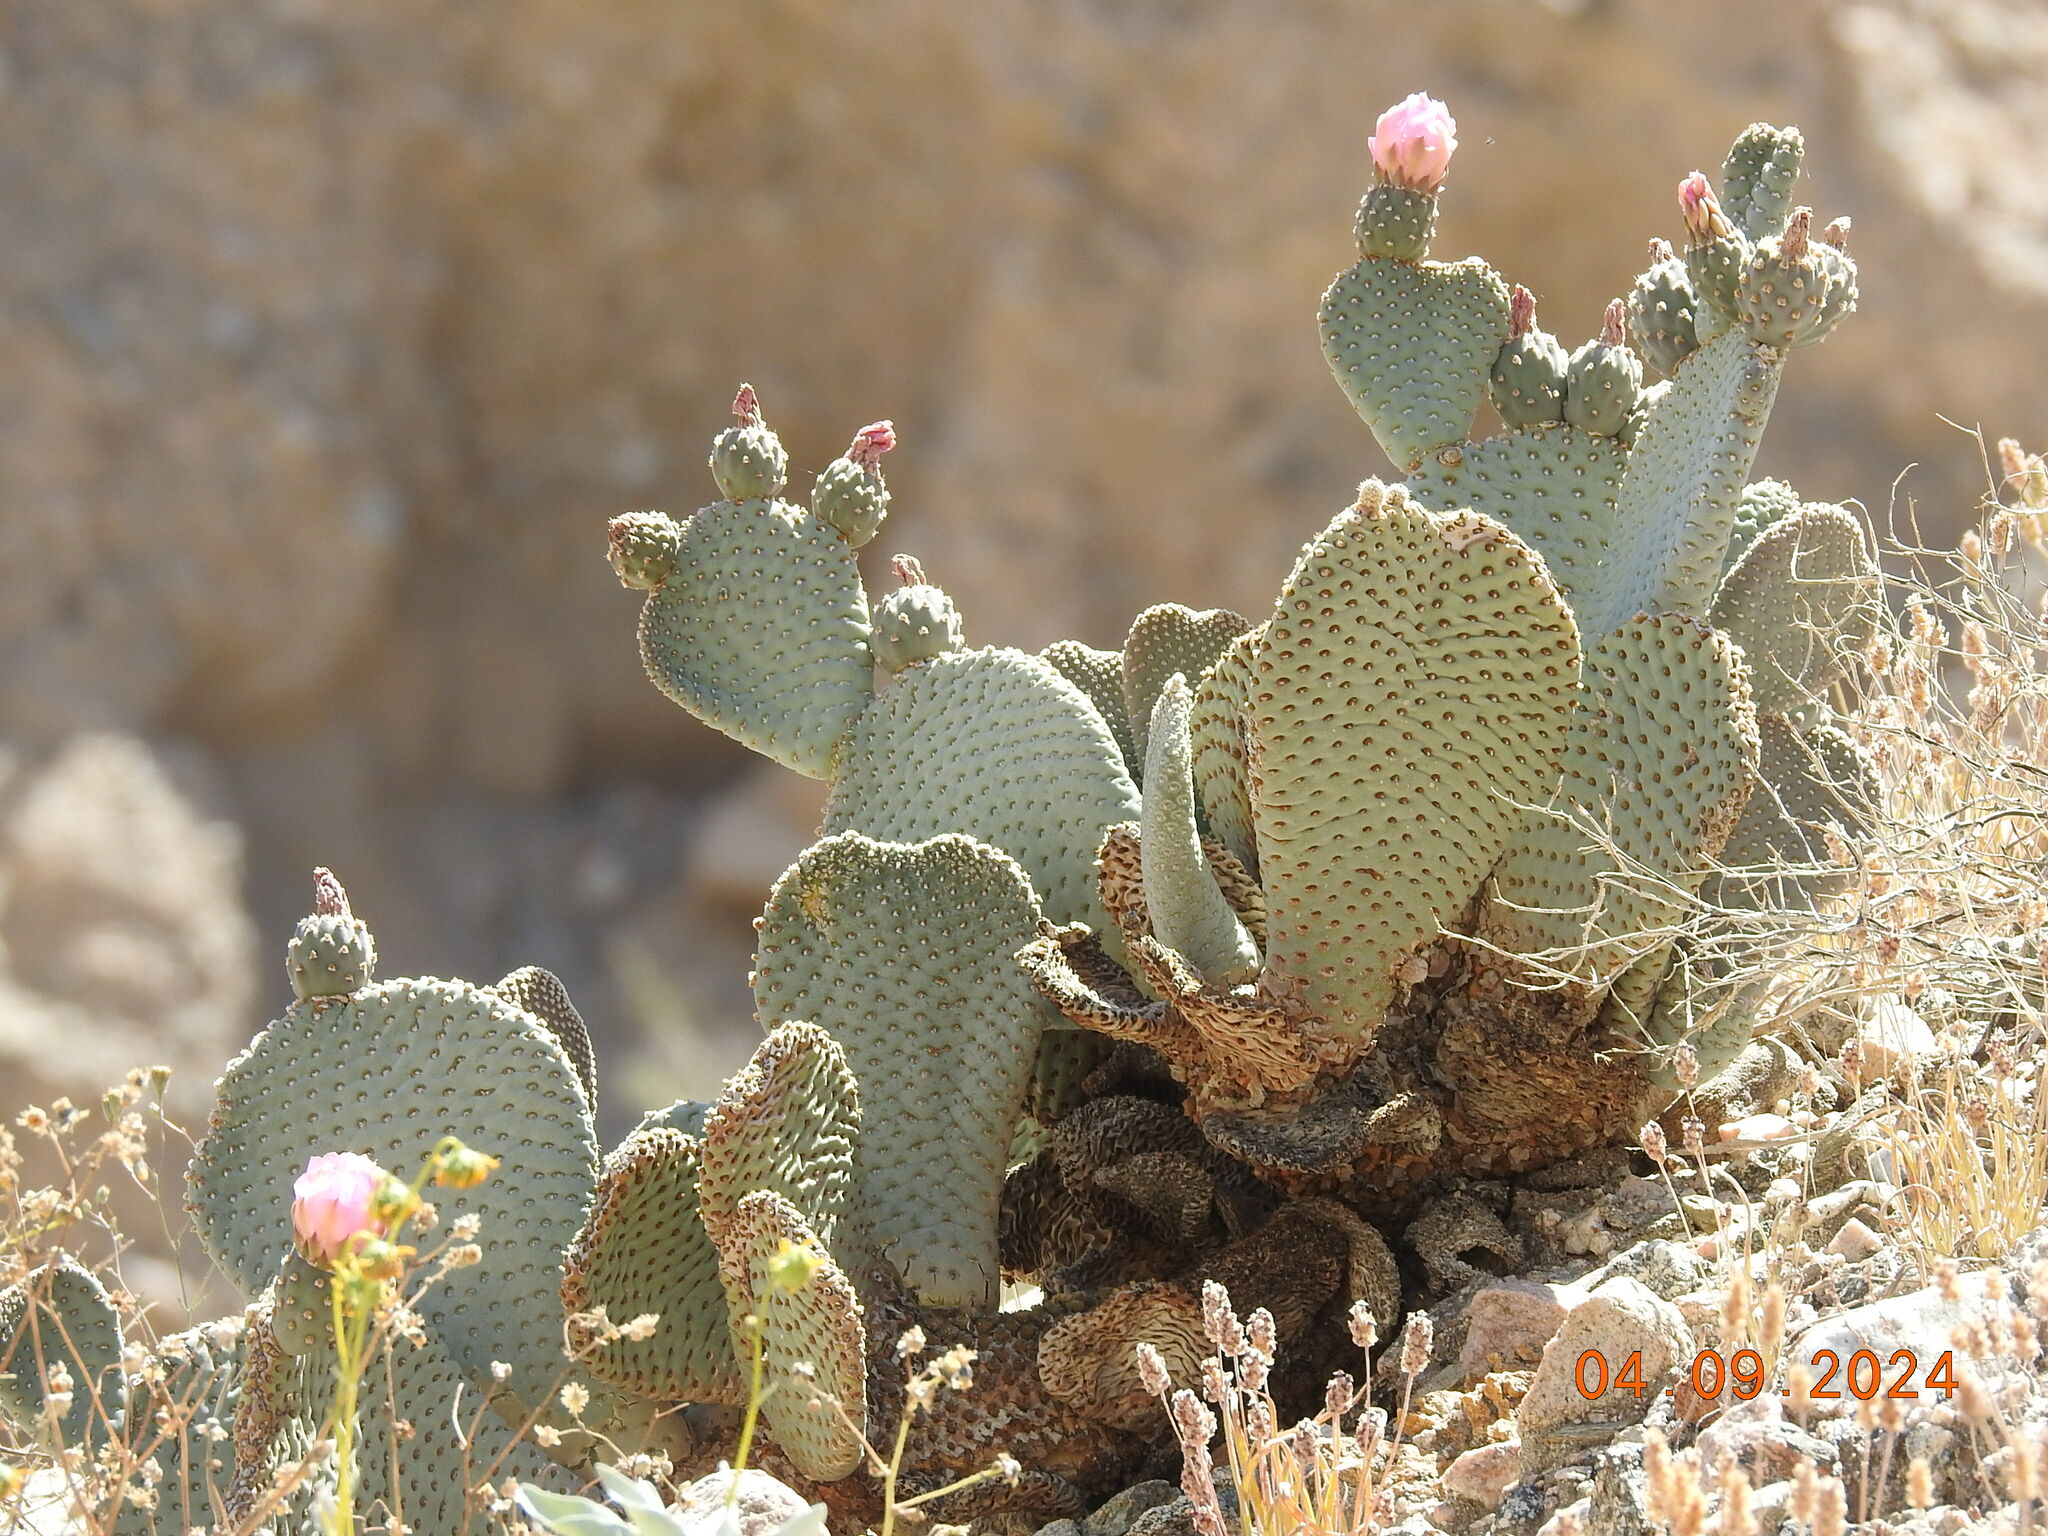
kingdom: Plantae
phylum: Tracheophyta
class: Magnoliopsida
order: Caryophyllales
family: Cactaceae
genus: Opuntia
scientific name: Opuntia basilaris
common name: Beavertail prickly-pear
